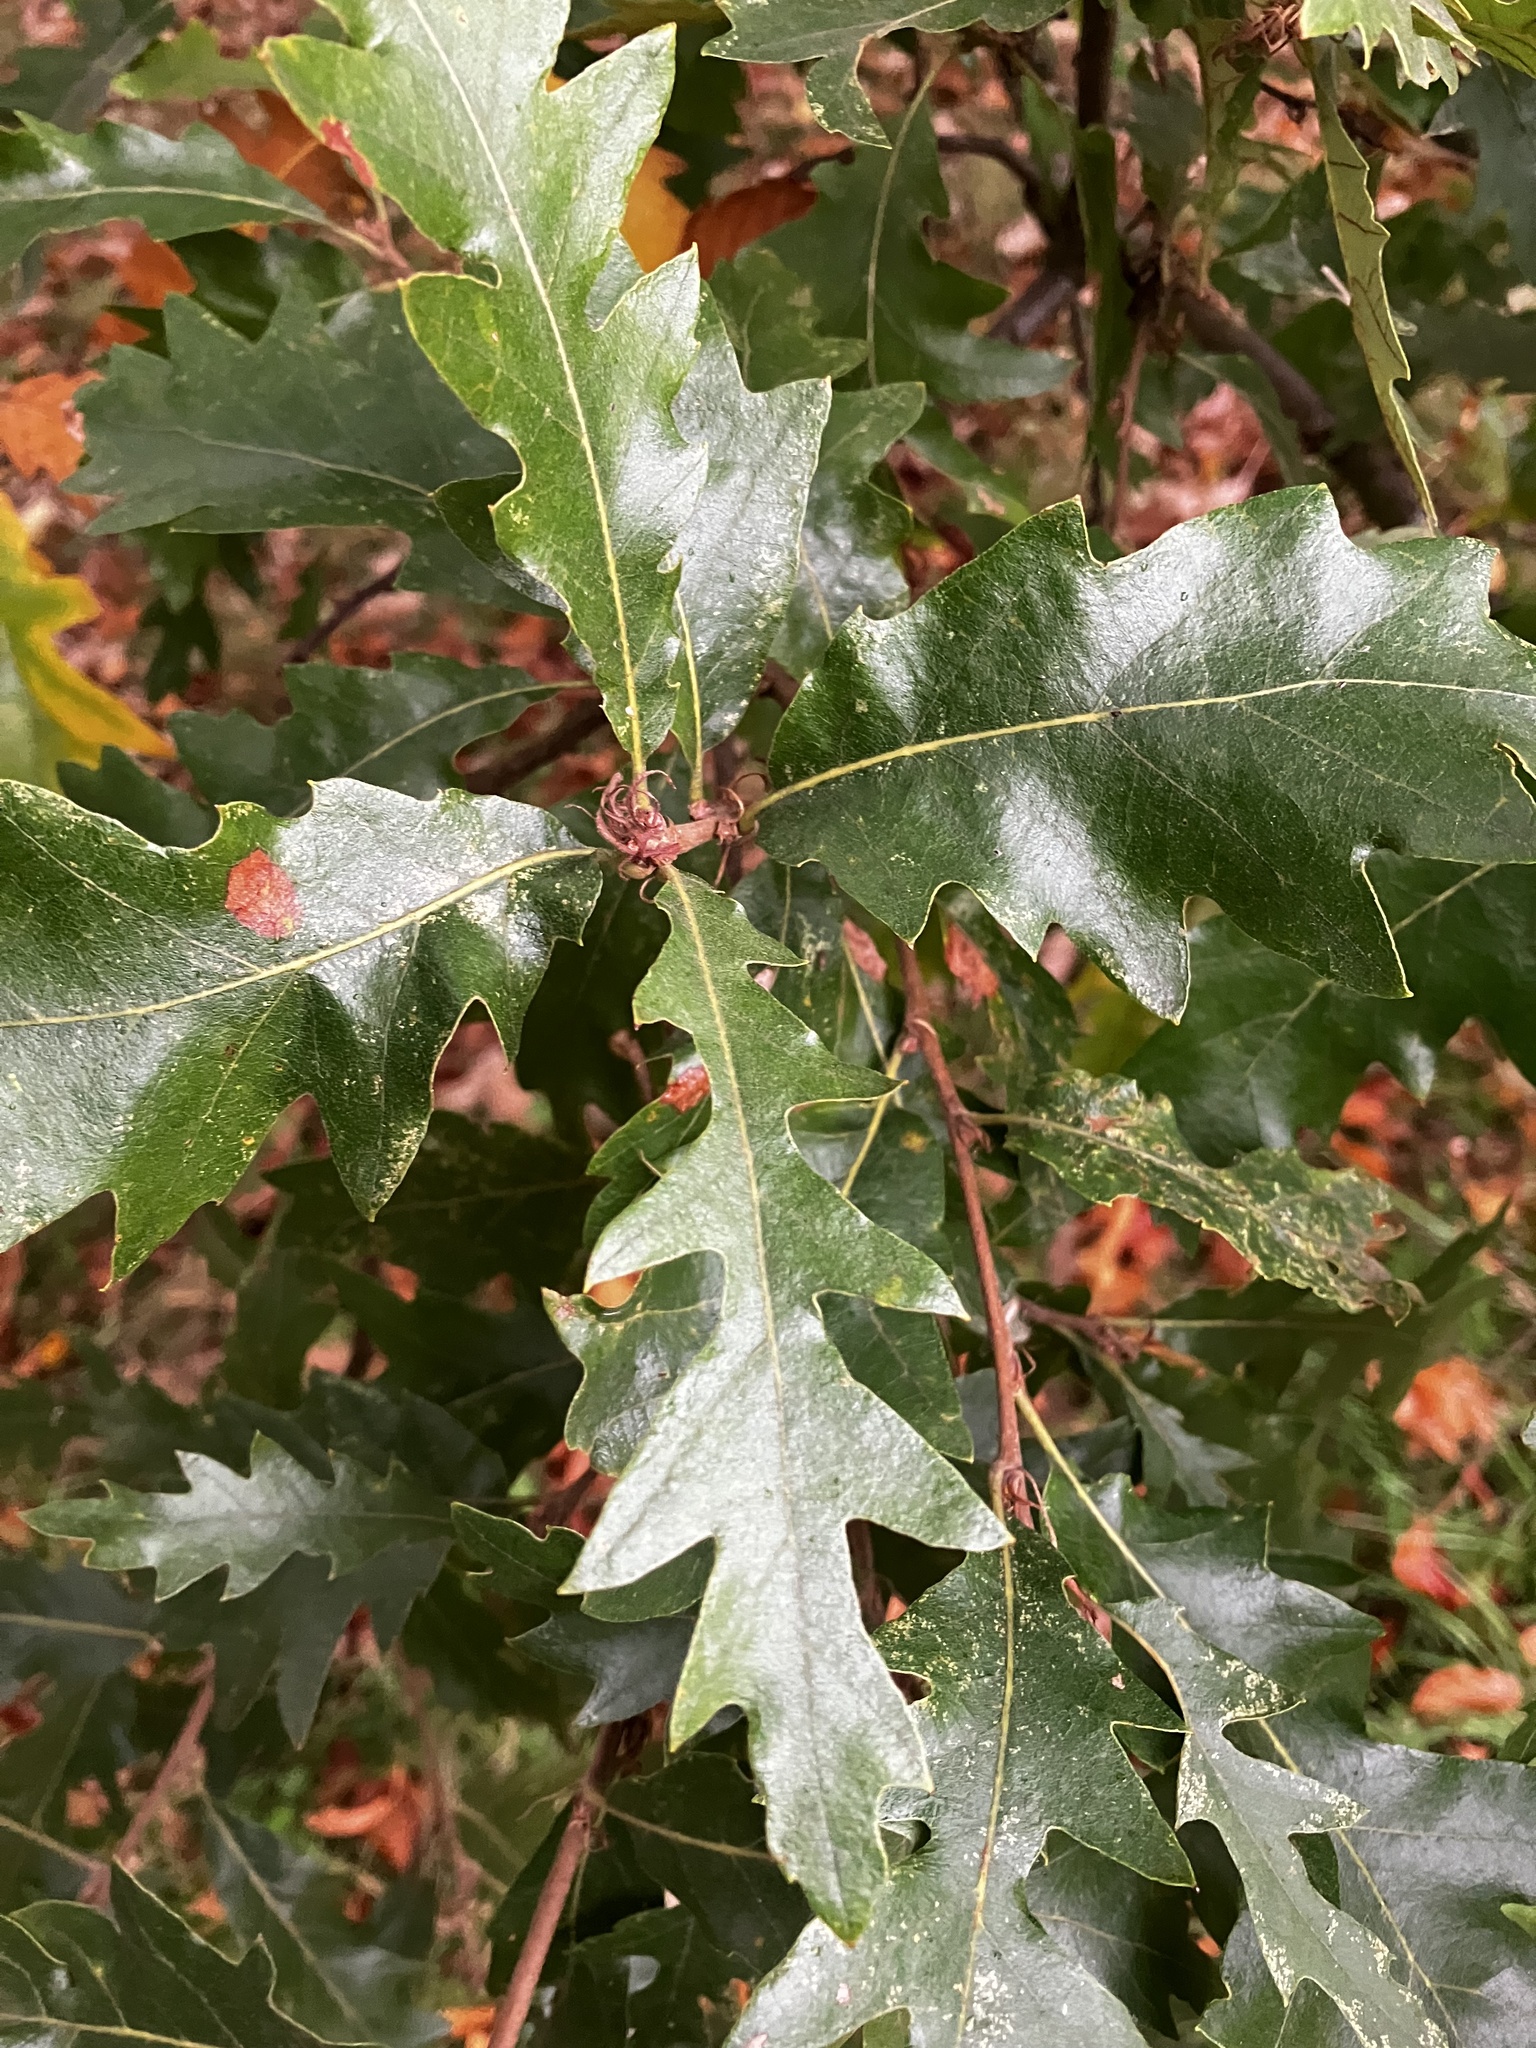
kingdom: Plantae
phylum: Tracheophyta
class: Magnoliopsida
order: Fagales
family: Fagaceae
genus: Quercus
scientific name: Quercus cerris
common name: Turkey oak
